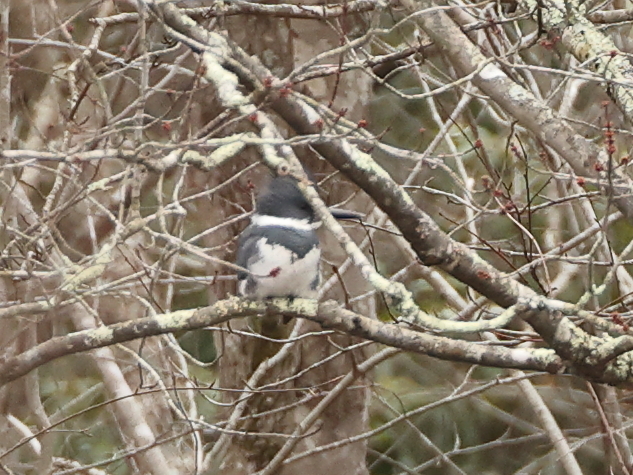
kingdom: Animalia
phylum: Chordata
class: Aves
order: Coraciiformes
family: Alcedinidae
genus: Megaceryle
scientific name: Megaceryle alcyon
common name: Belted kingfisher
